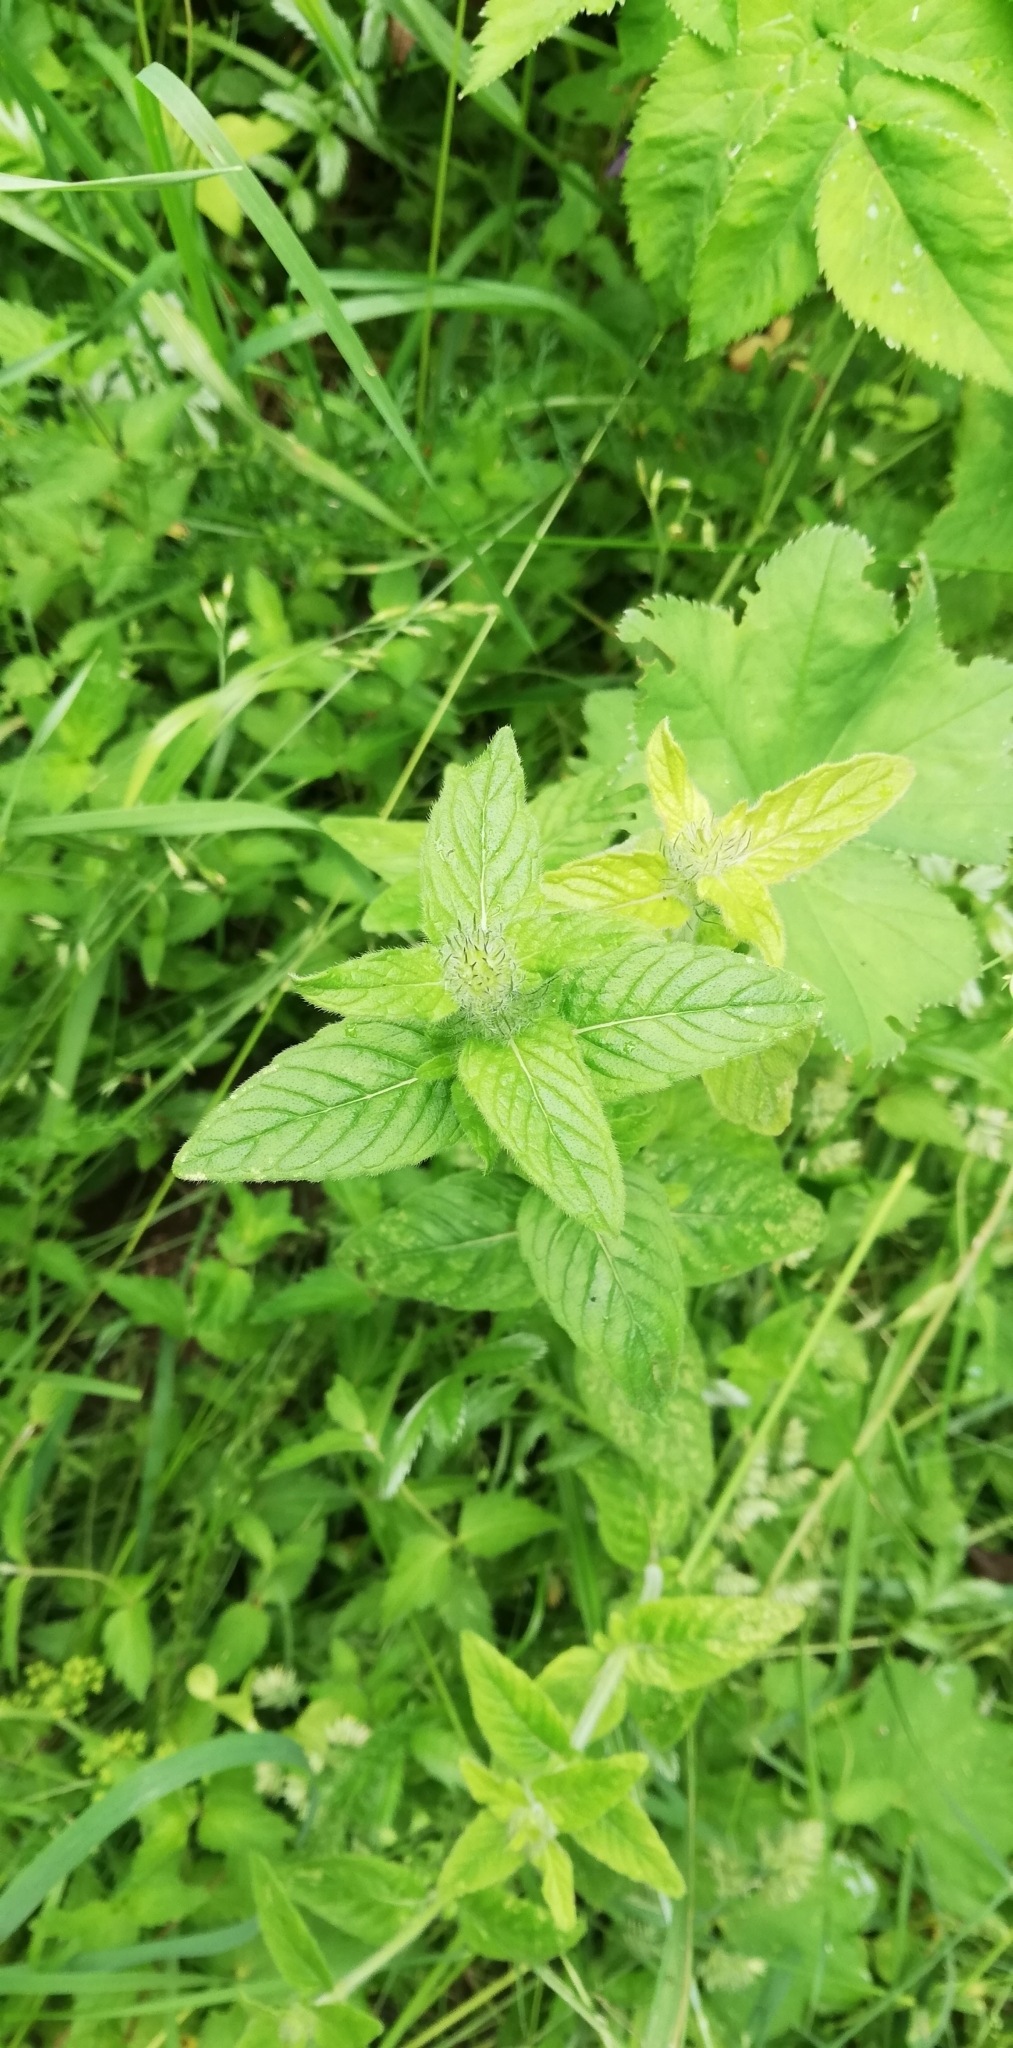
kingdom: Plantae
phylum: Tracheophyta
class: Magnoliopsida
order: Lamiales
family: Lamiaceae
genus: Clinopodium
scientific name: Clinopodium vulgare
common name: Wild basil
